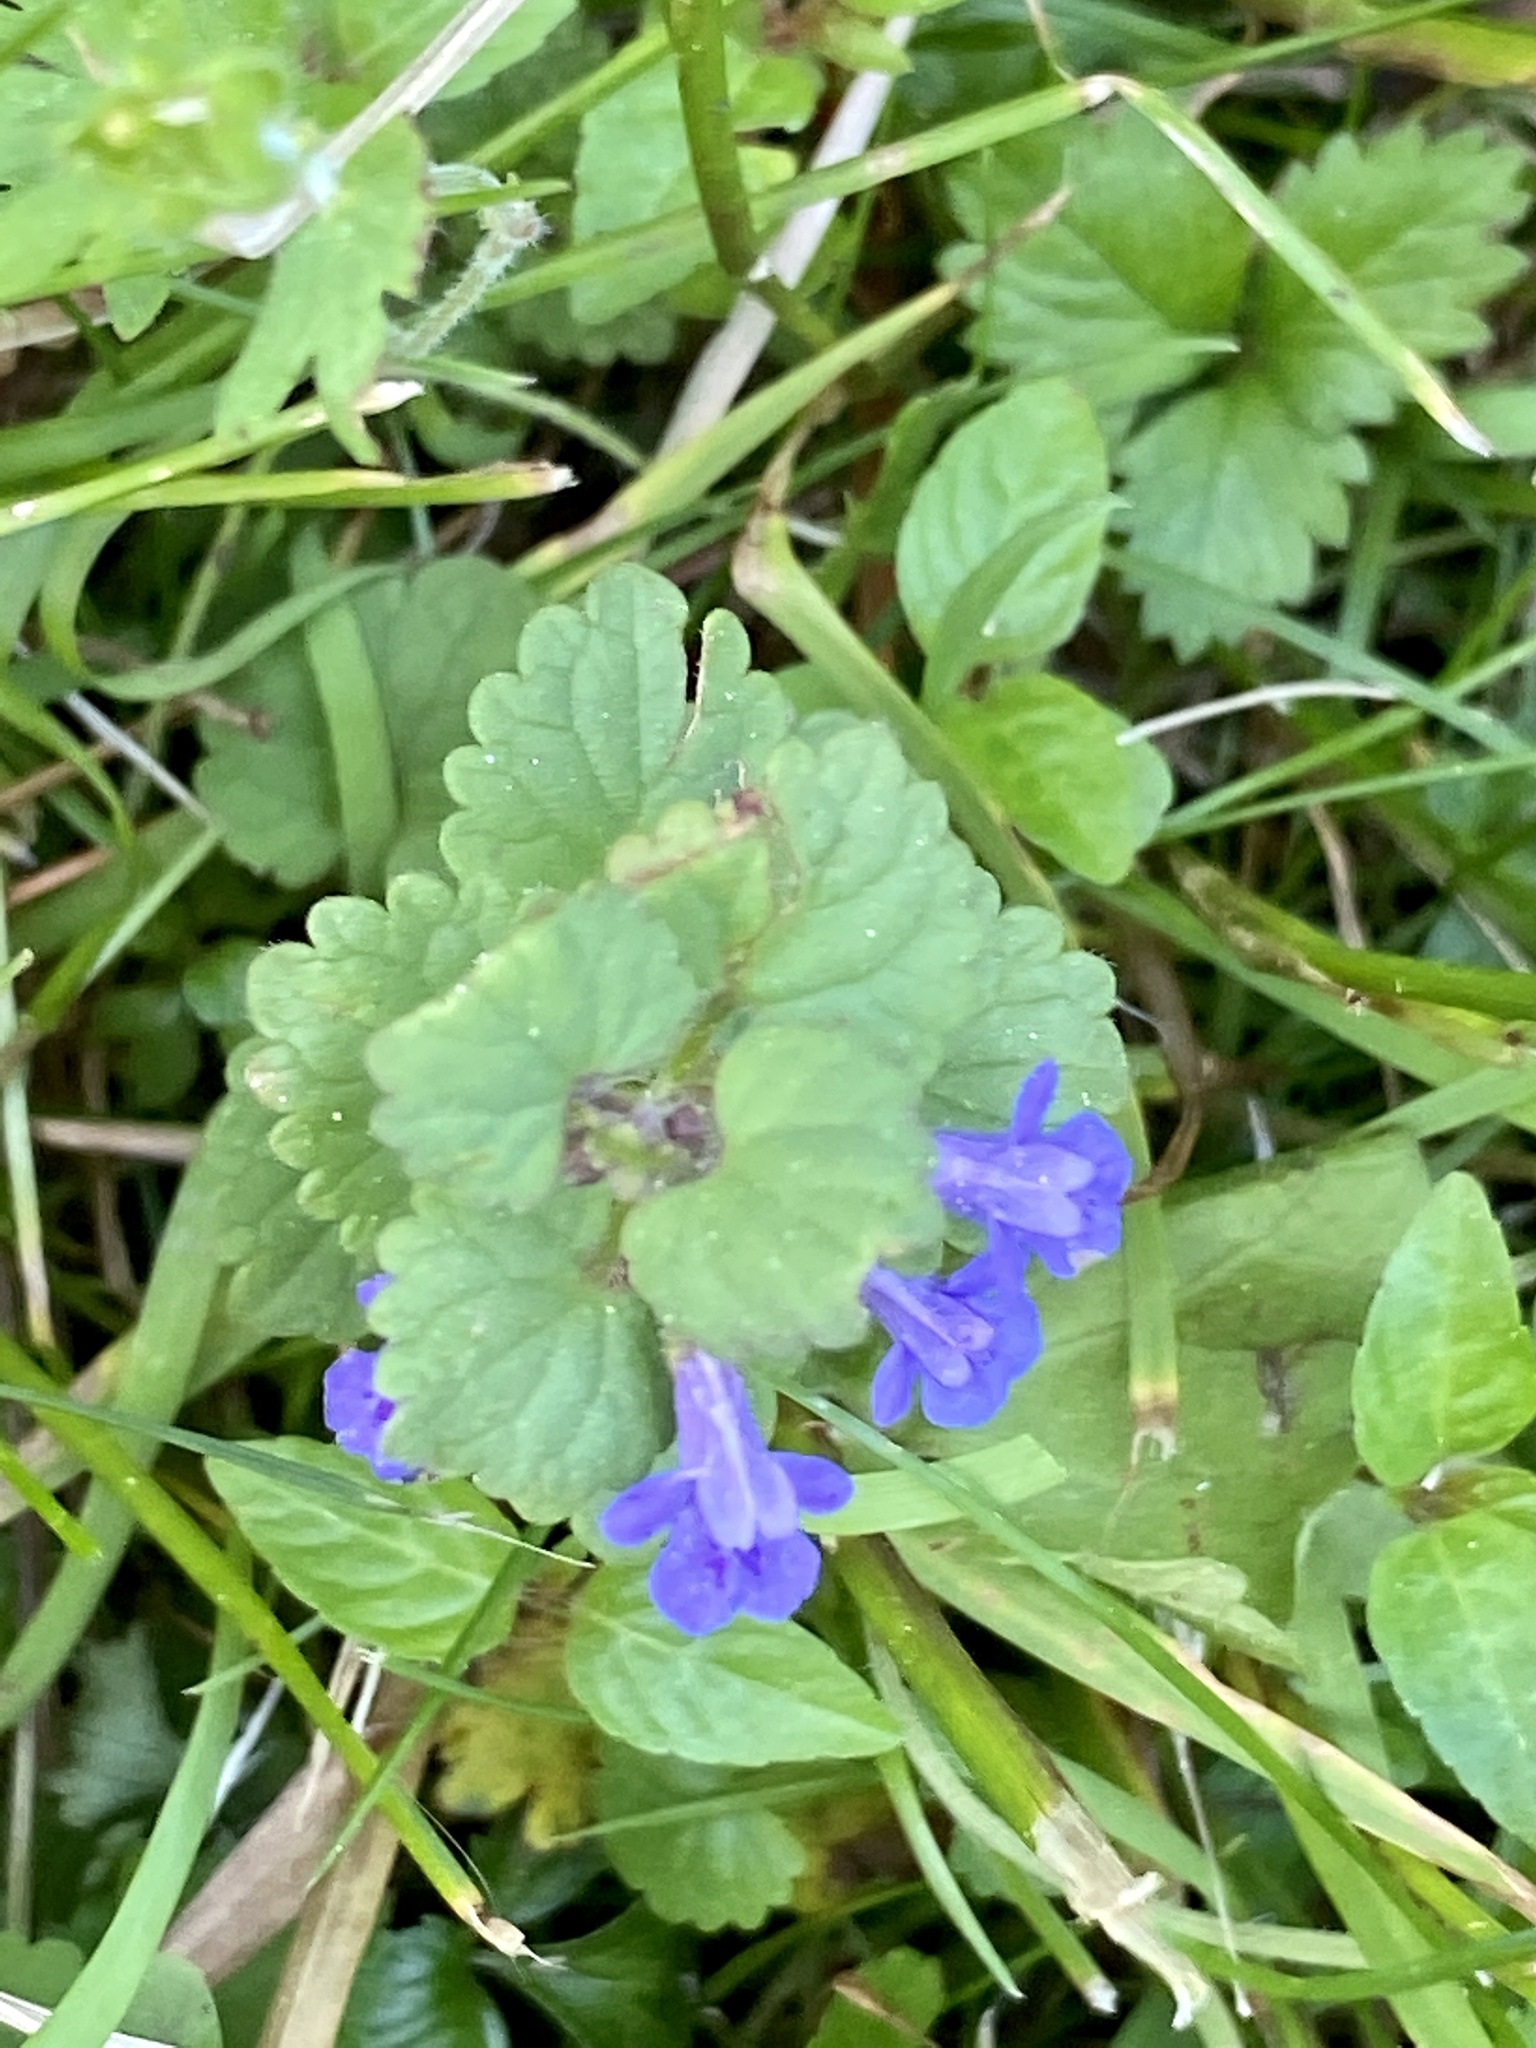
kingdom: Plantae
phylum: Tracheophyta
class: Magnoliopsida
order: Lamiales
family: Lamiaceae
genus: Glechoma
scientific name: Glechoma hederacea
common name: Ground ivy
